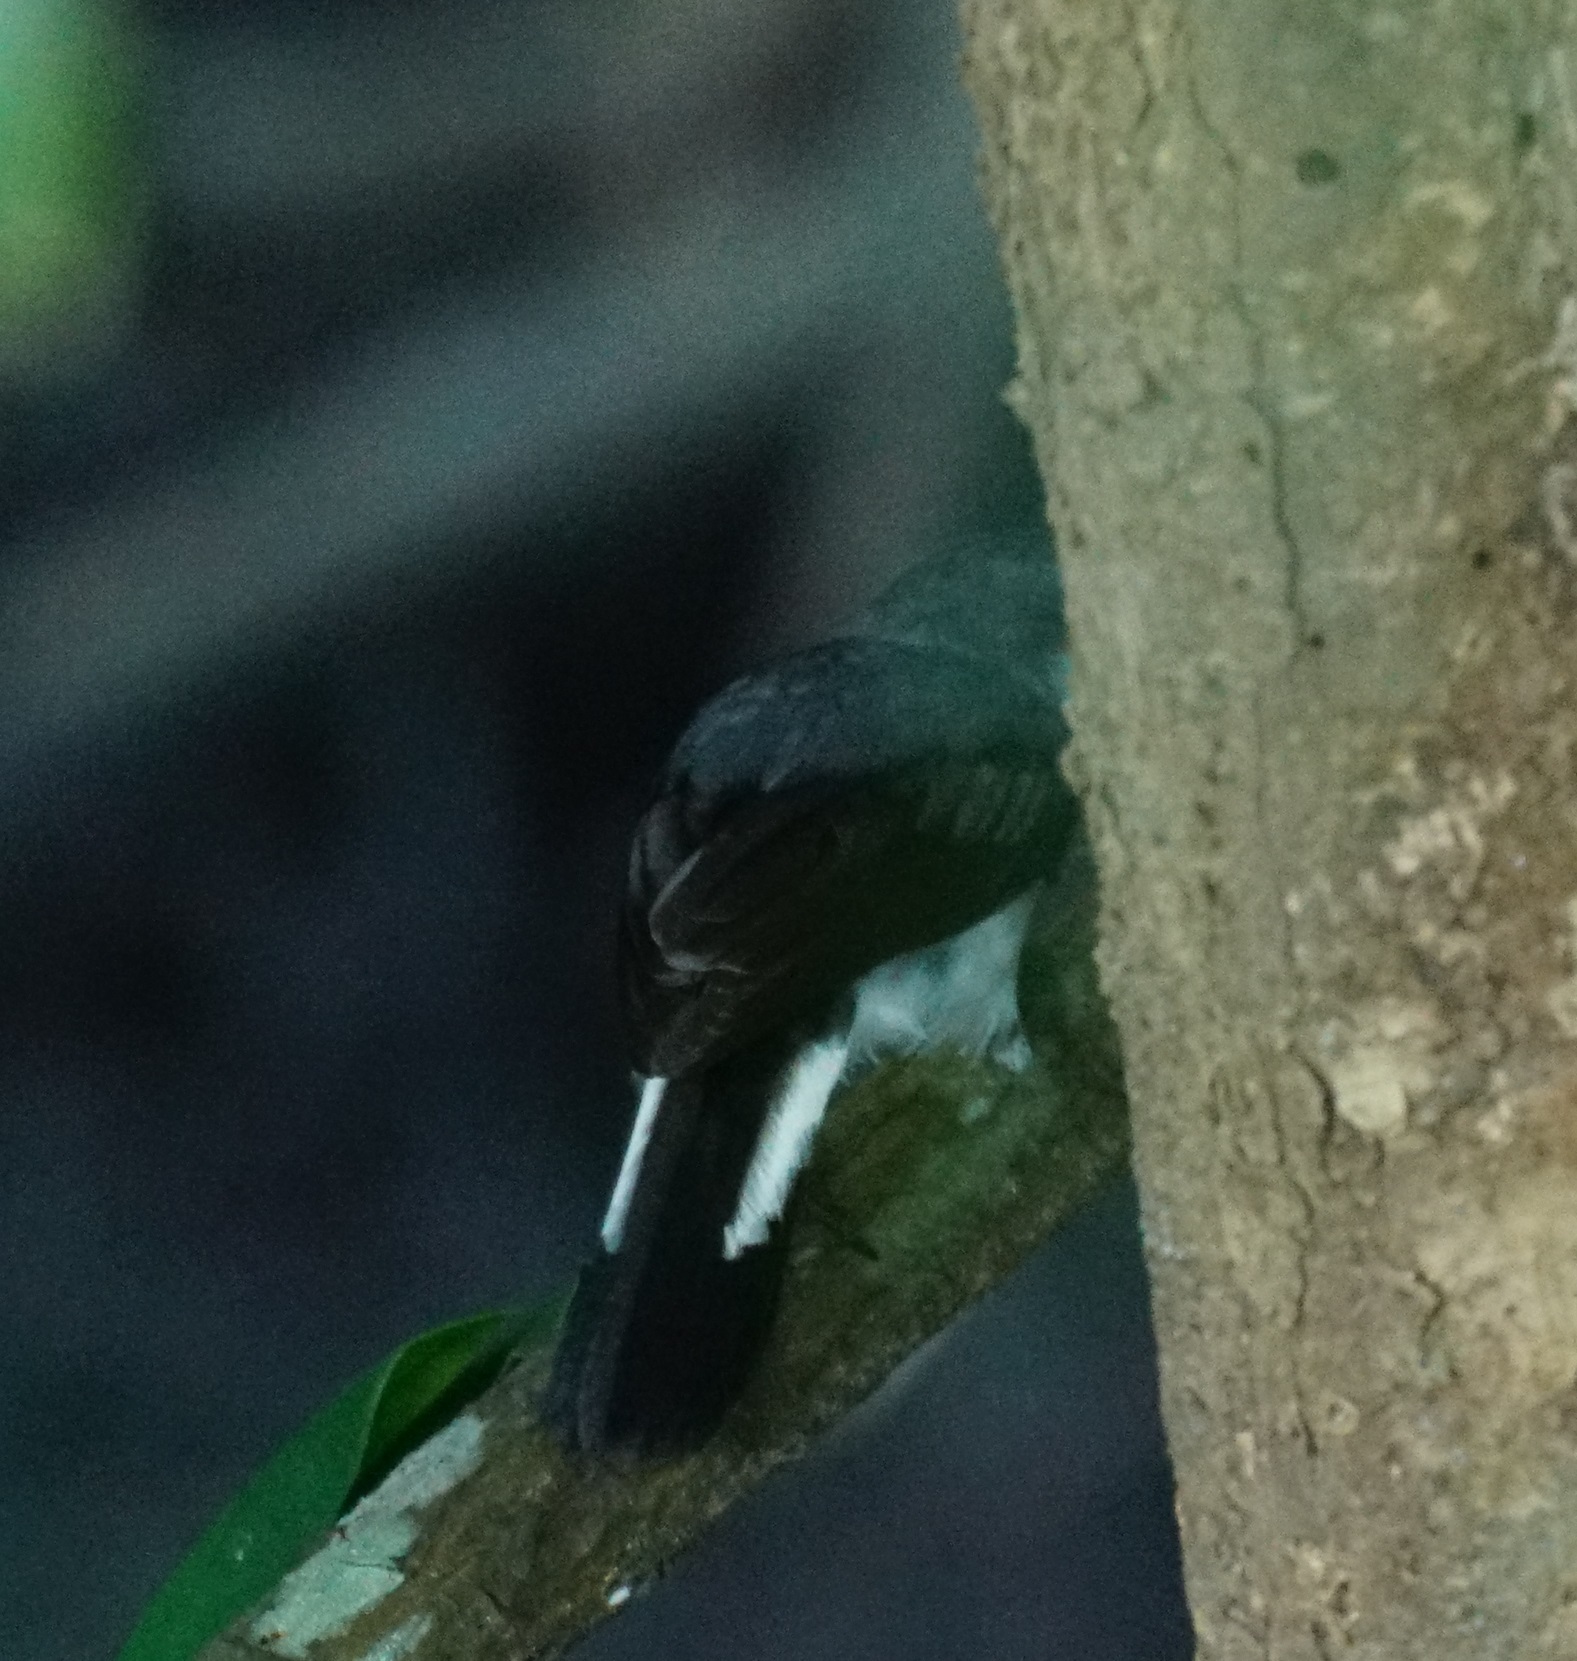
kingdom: Animalia
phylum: Chordata
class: Aves
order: Passeriformes
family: Petroicidae
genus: Melanodryas
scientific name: Melanodryas
